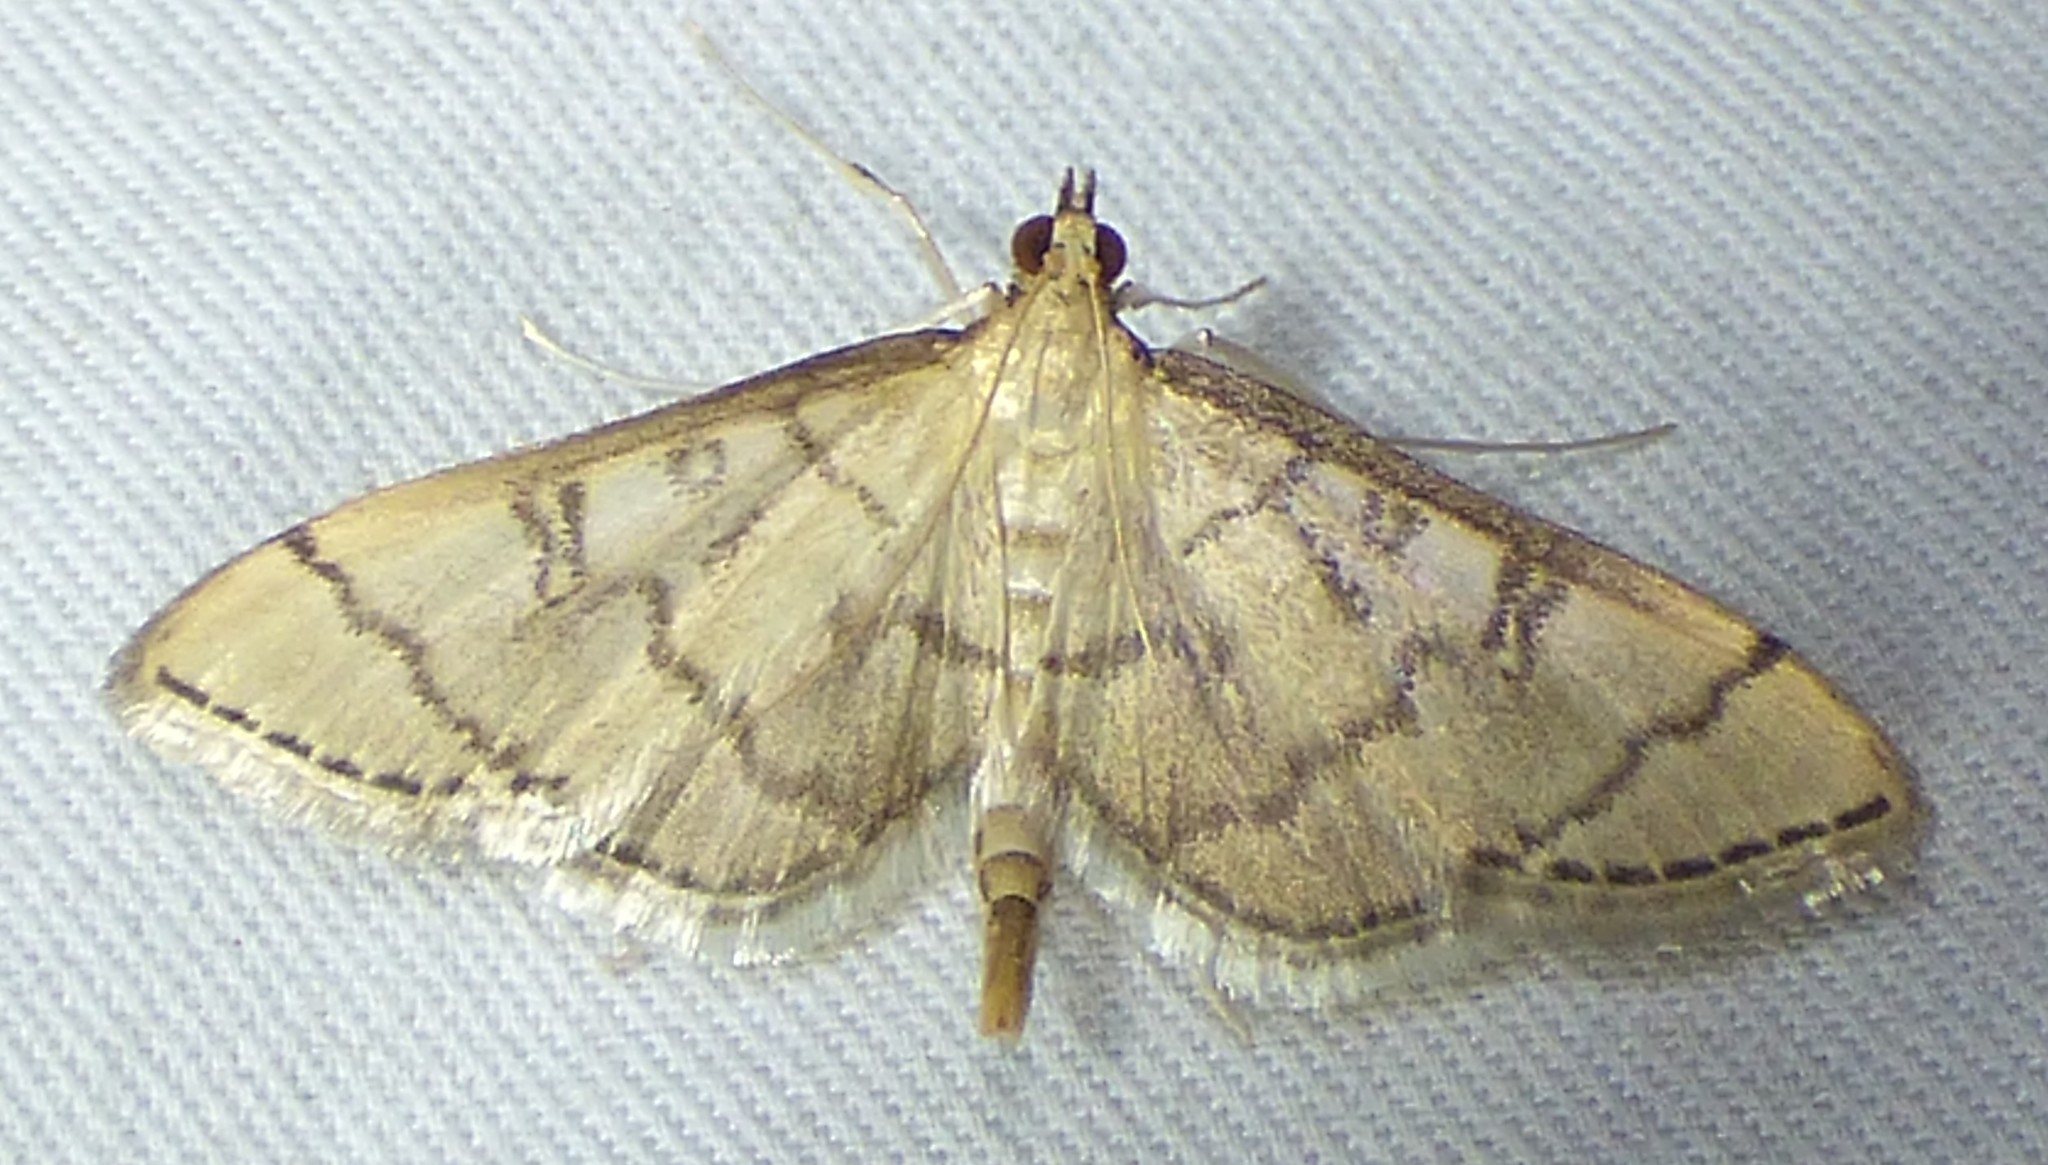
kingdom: Animalia
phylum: Arthropoda
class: Insecta
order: Lepidoptera
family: Crambidae
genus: Lamprosema
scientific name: Lamprosema Blepharomastix ranalis
